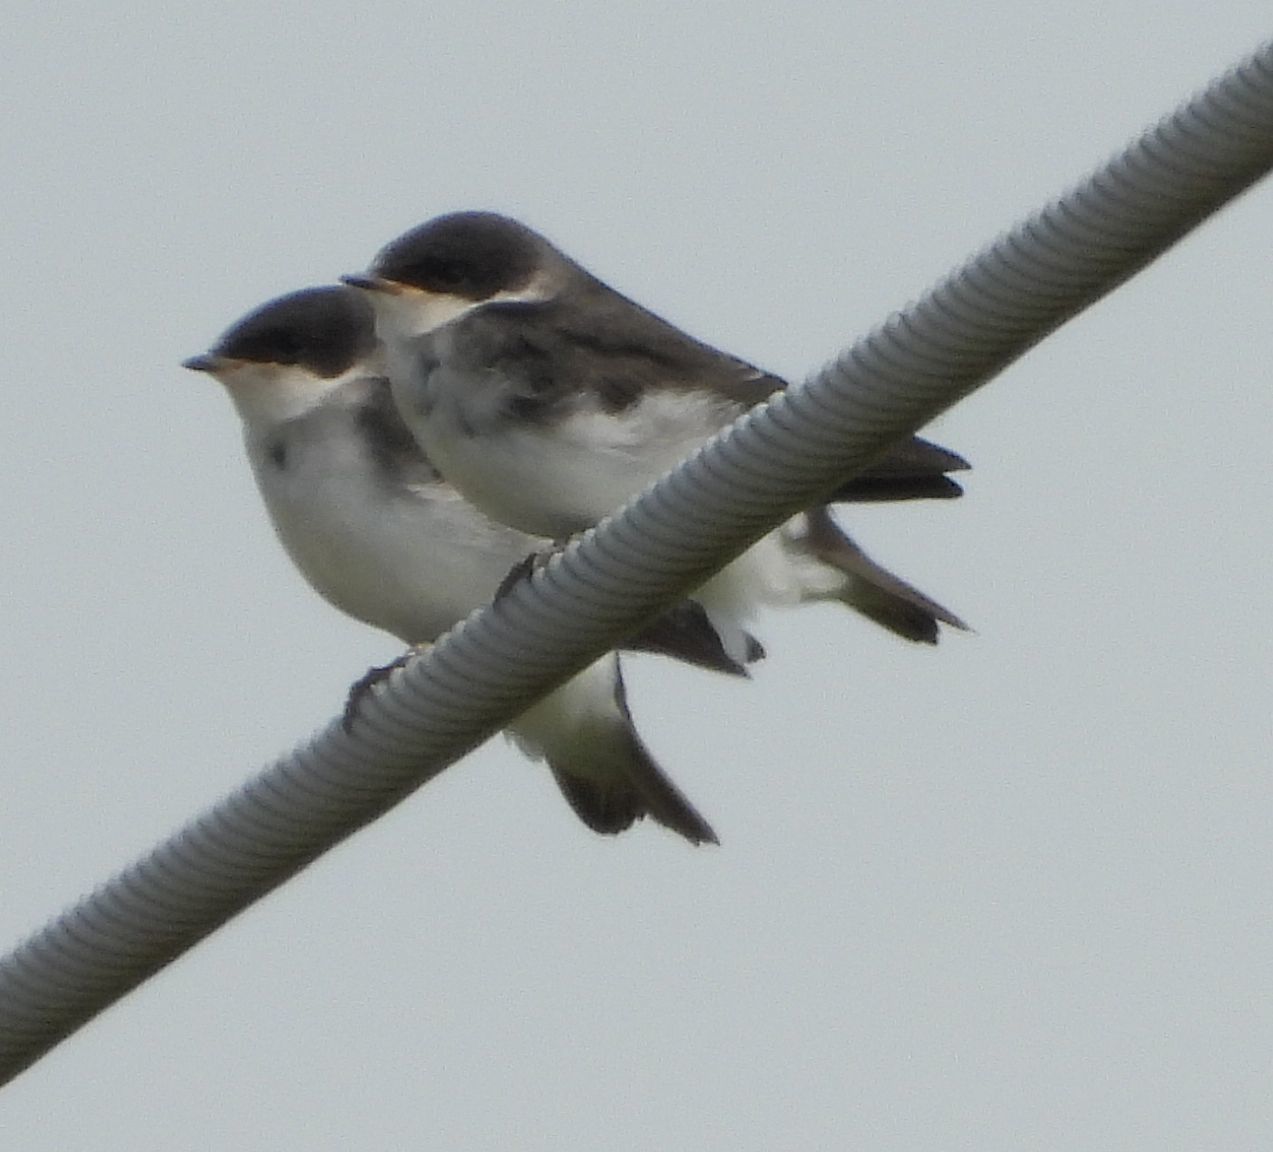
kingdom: Animalia
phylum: Chordata
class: Aves
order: Passeriformes
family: Hirundinidae
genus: Tachycineta
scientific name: Tachycineta bicolor
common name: Tree swallow
